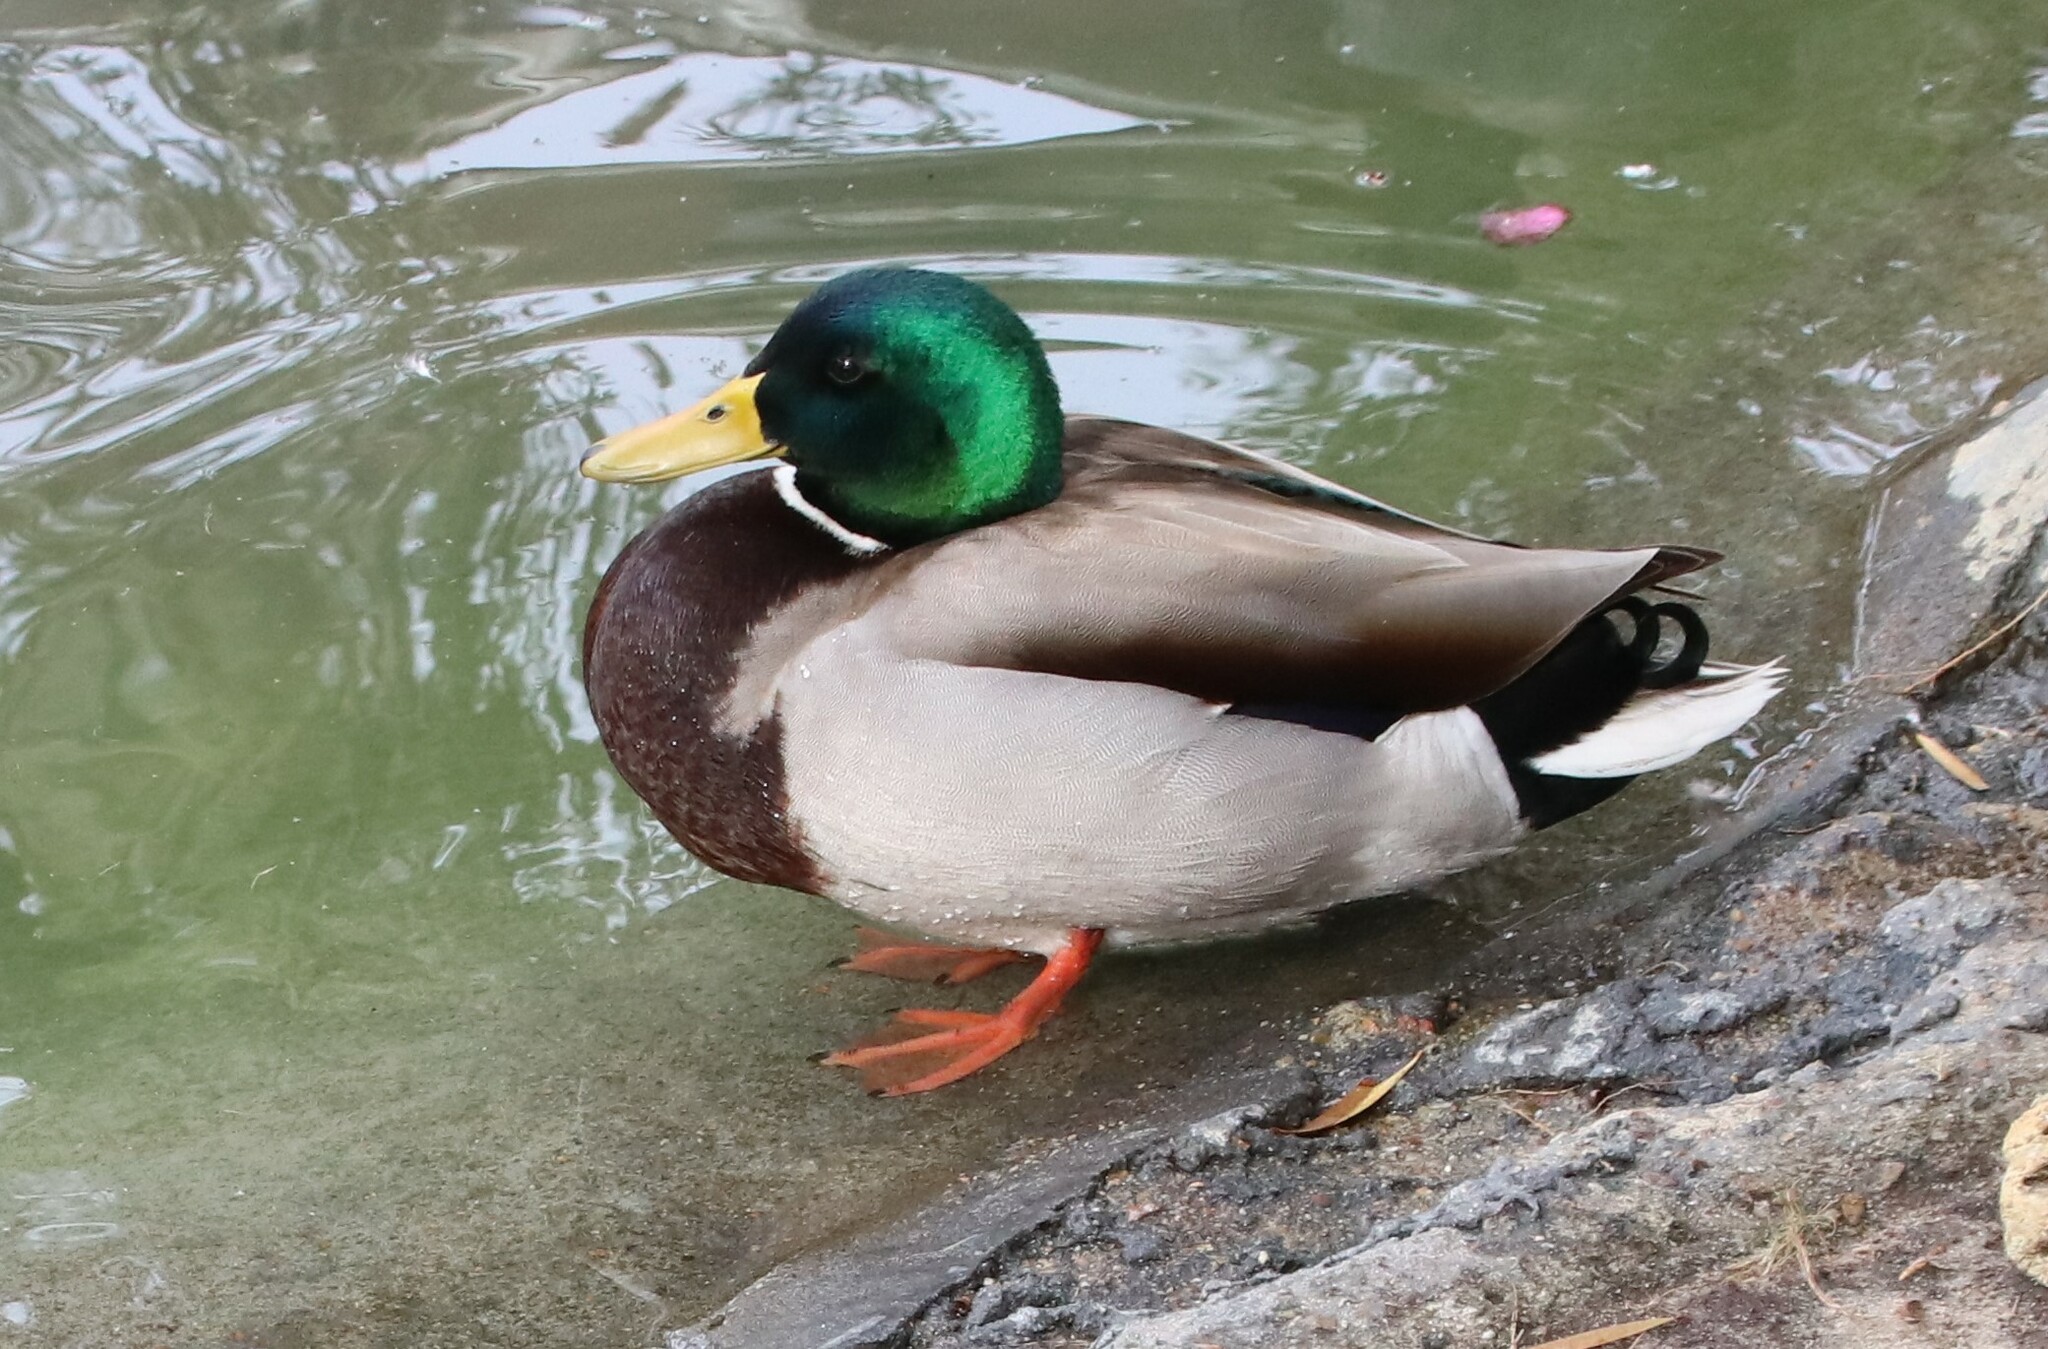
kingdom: Animalia
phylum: Chordata
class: Aves
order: Anseriformes
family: Anatidae
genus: Anas
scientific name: Anas platyrhynchos
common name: Mallard
